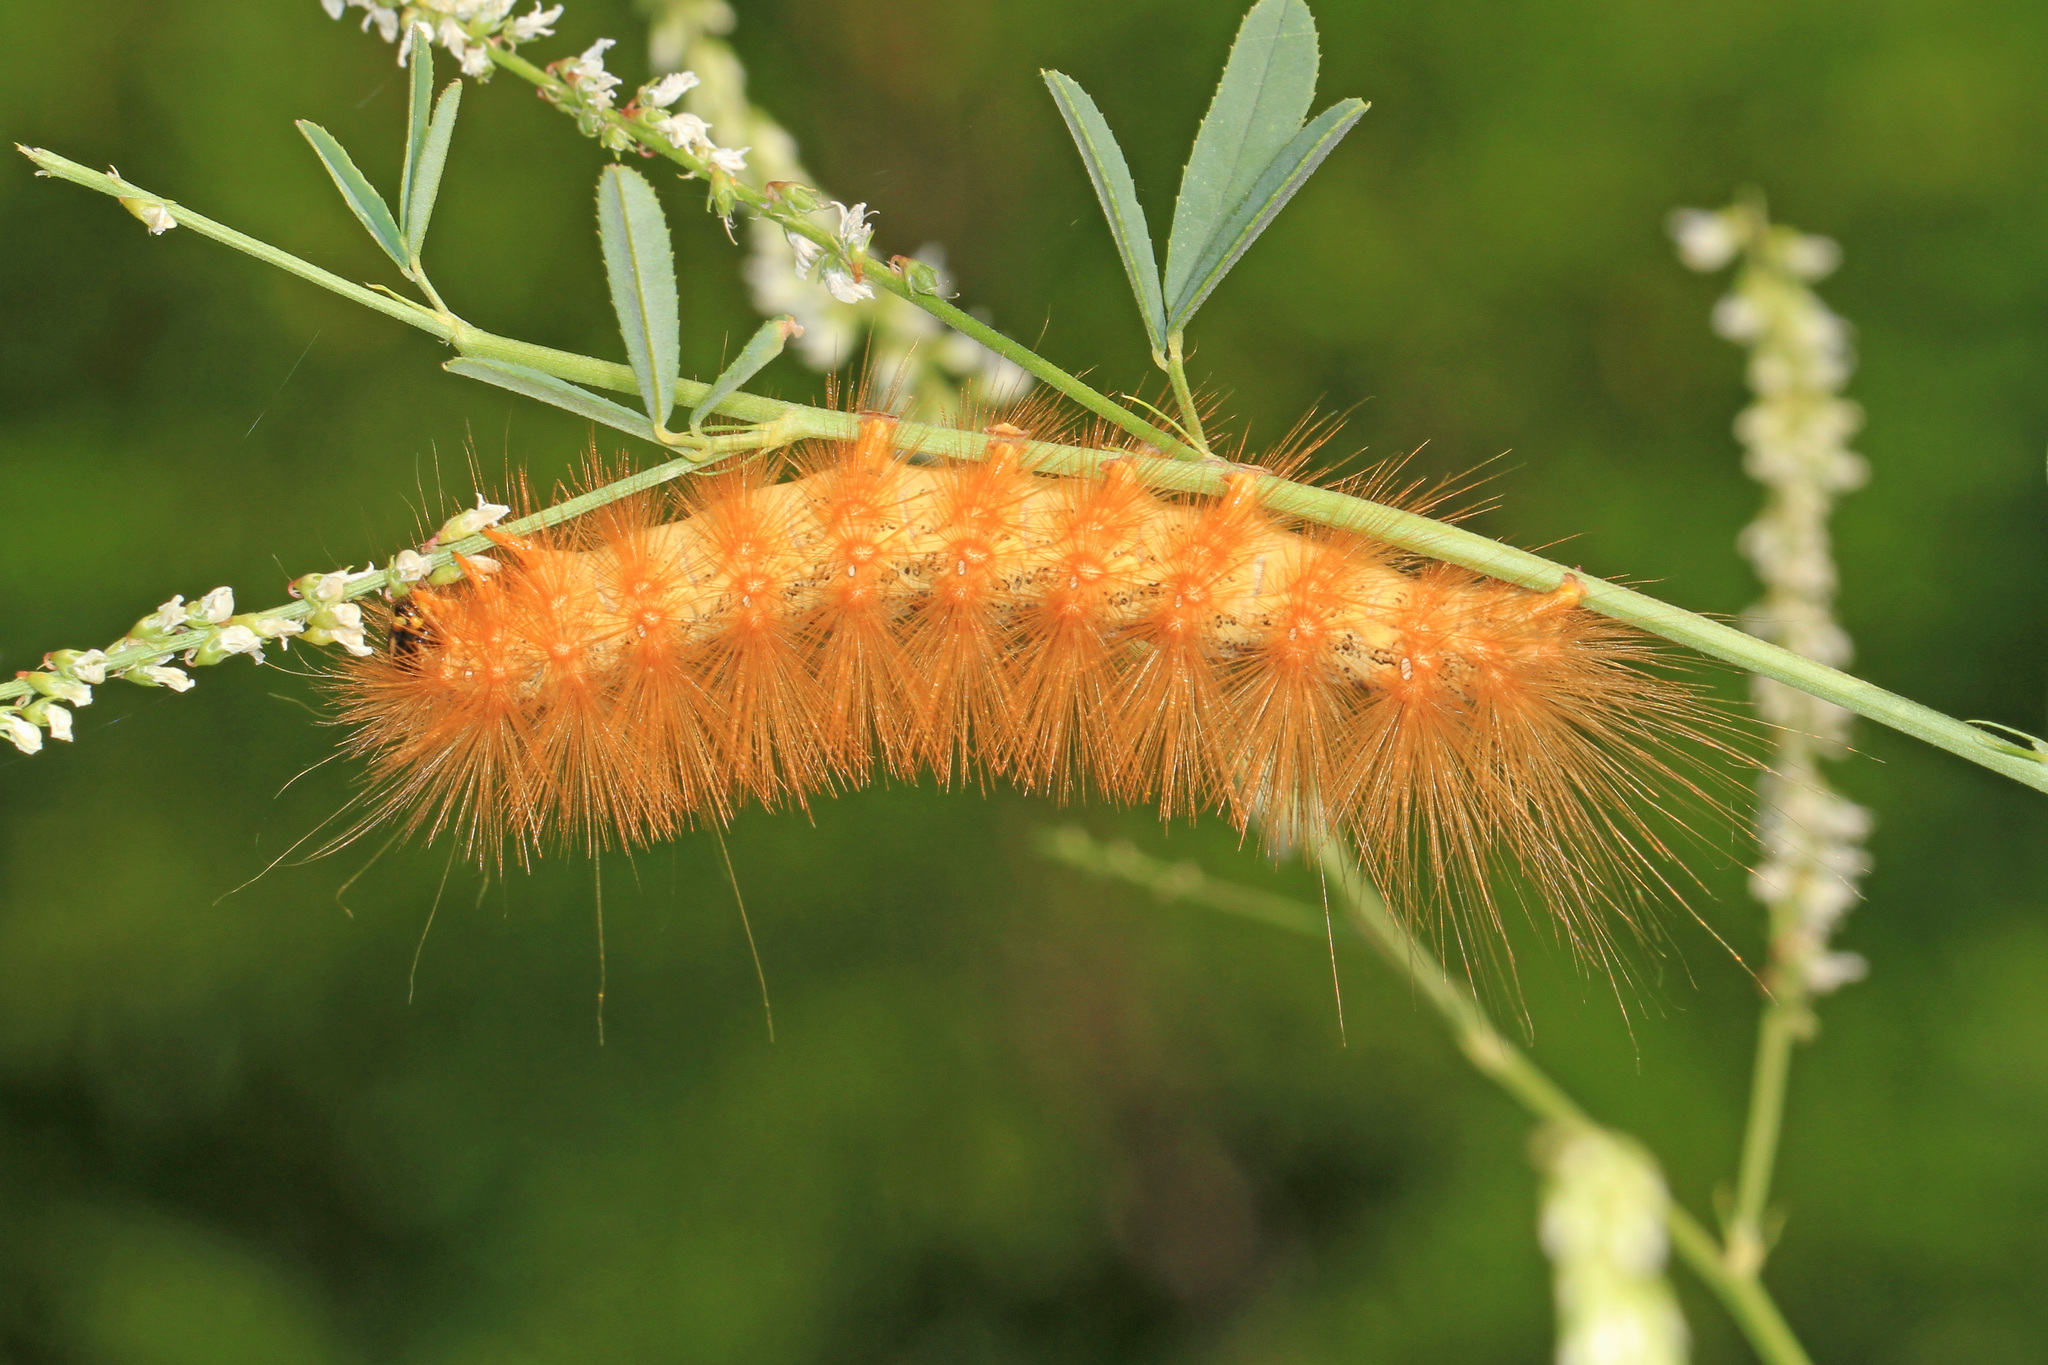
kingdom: Animalia
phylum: Arthropoda
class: Insecta
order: Lepidoptera
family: Erebidae
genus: Estigmene
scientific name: Estigmene acrea
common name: Salt marsh moth
